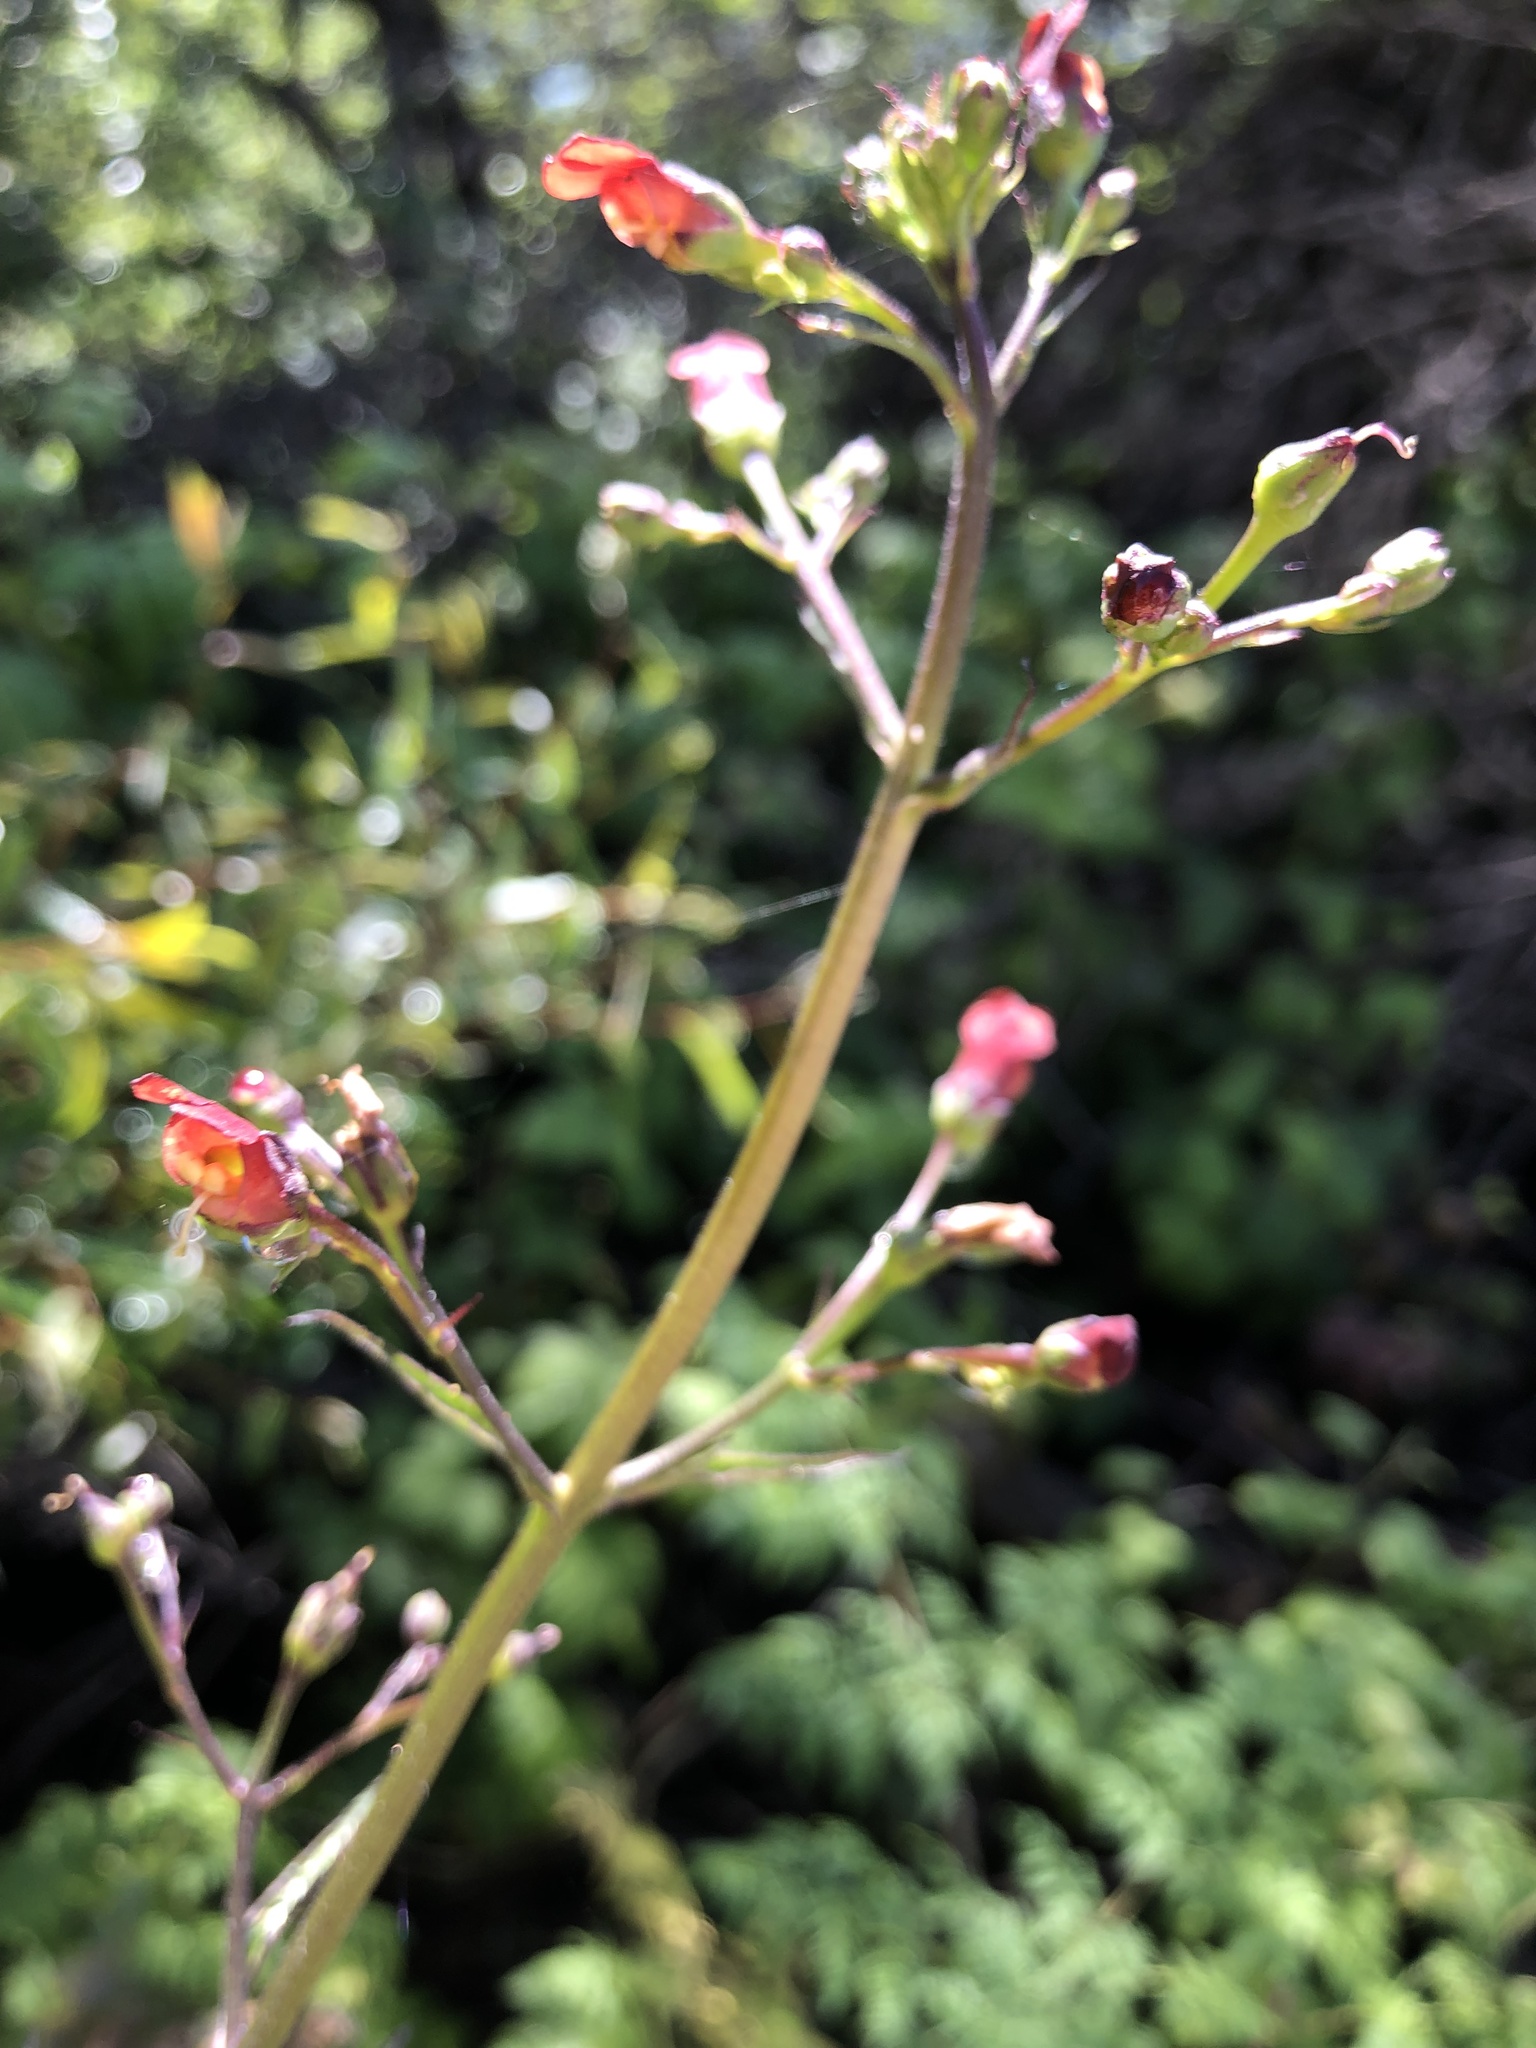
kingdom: Plantae
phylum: Tracheophyta
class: Magnoliopsida
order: Lamiales
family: Scrophulariaceae
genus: Scrophularia
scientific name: Scrophularia californica
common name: California figwort
